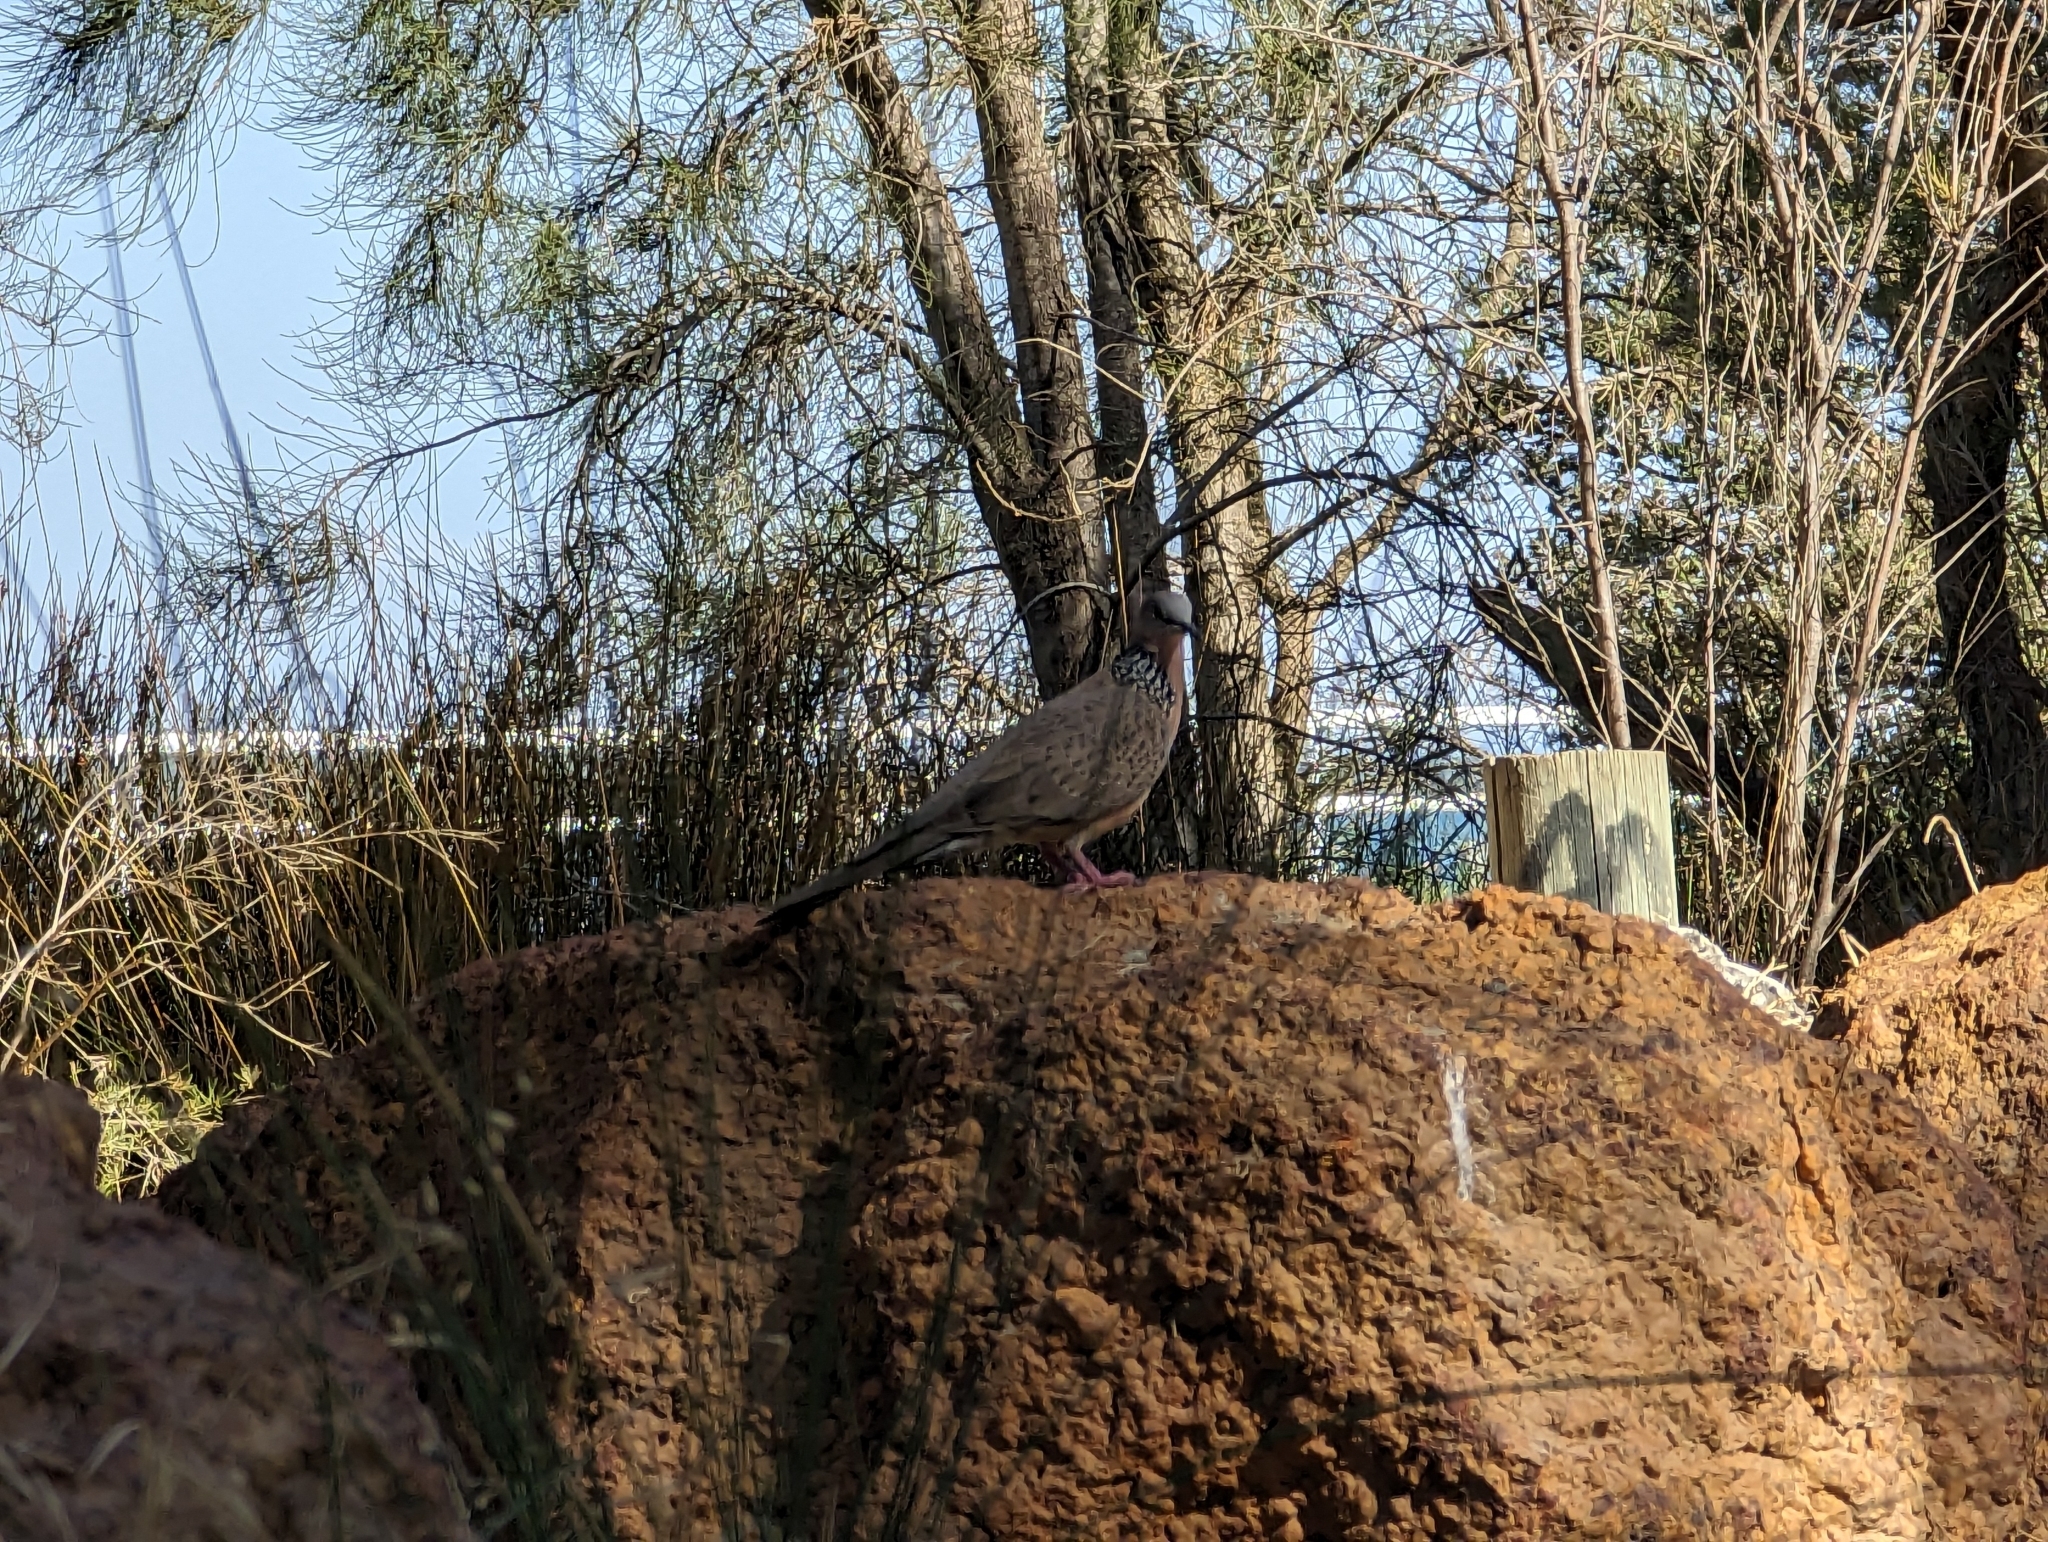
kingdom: Animalia
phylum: Chordata
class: Aves
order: Columbiformes
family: Columbidae
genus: Spilopelia
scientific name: Spilopelia chinensis
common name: Spotted dove
